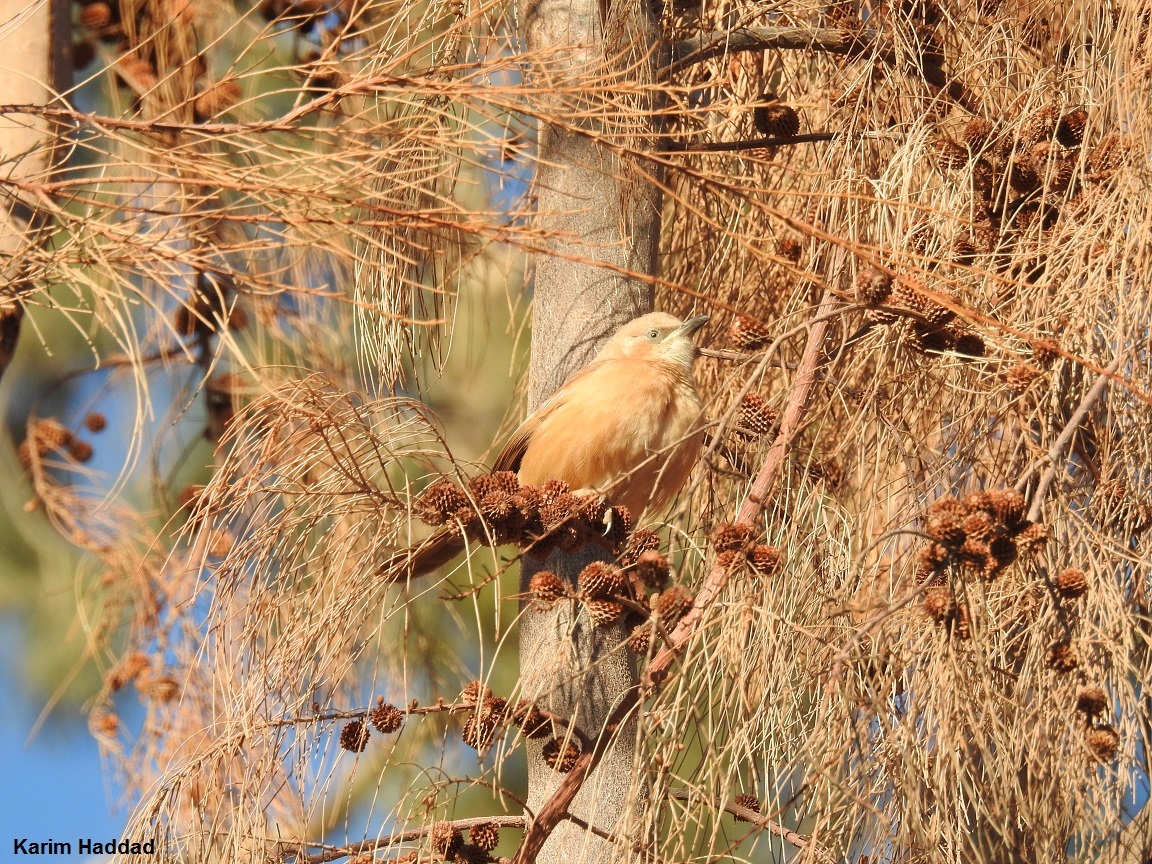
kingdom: Animalia
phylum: Chordata
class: Aves
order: Passeriformes
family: Leiothrichidae
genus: Turdoides
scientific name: Turdoides fulva
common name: Fulvous babbler
